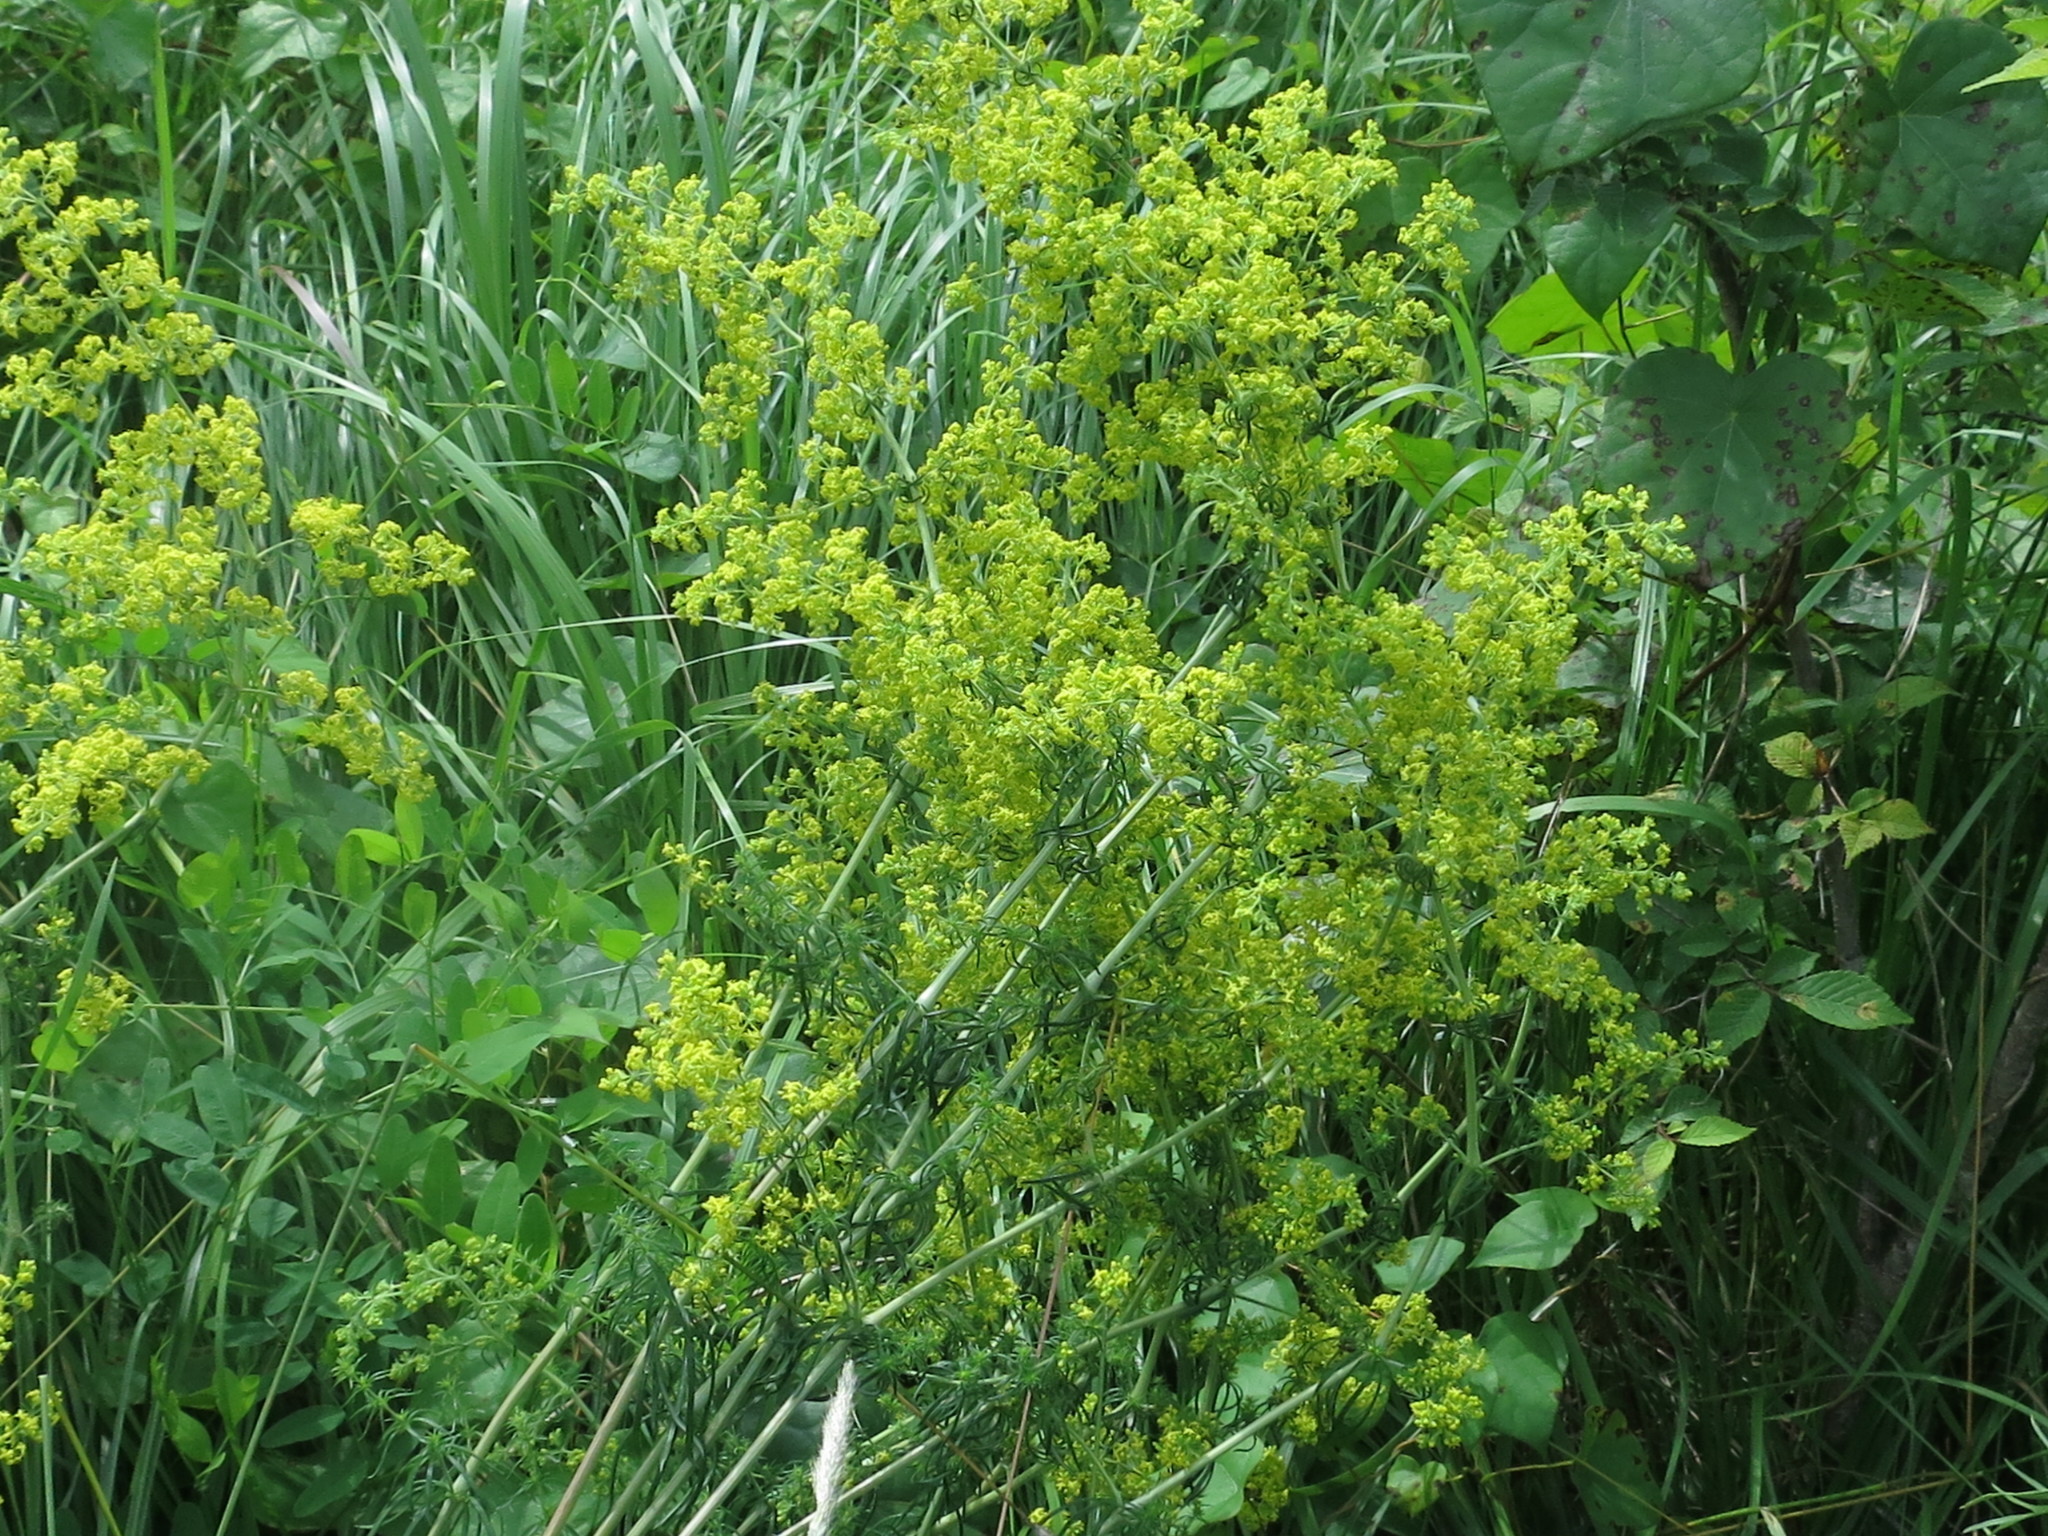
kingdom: Plantae
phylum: Tracheophyta
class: Magnoliopsida
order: Gentianales
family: Rubiaceae
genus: Galium
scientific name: Galium verum
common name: Lady's bedstraw
